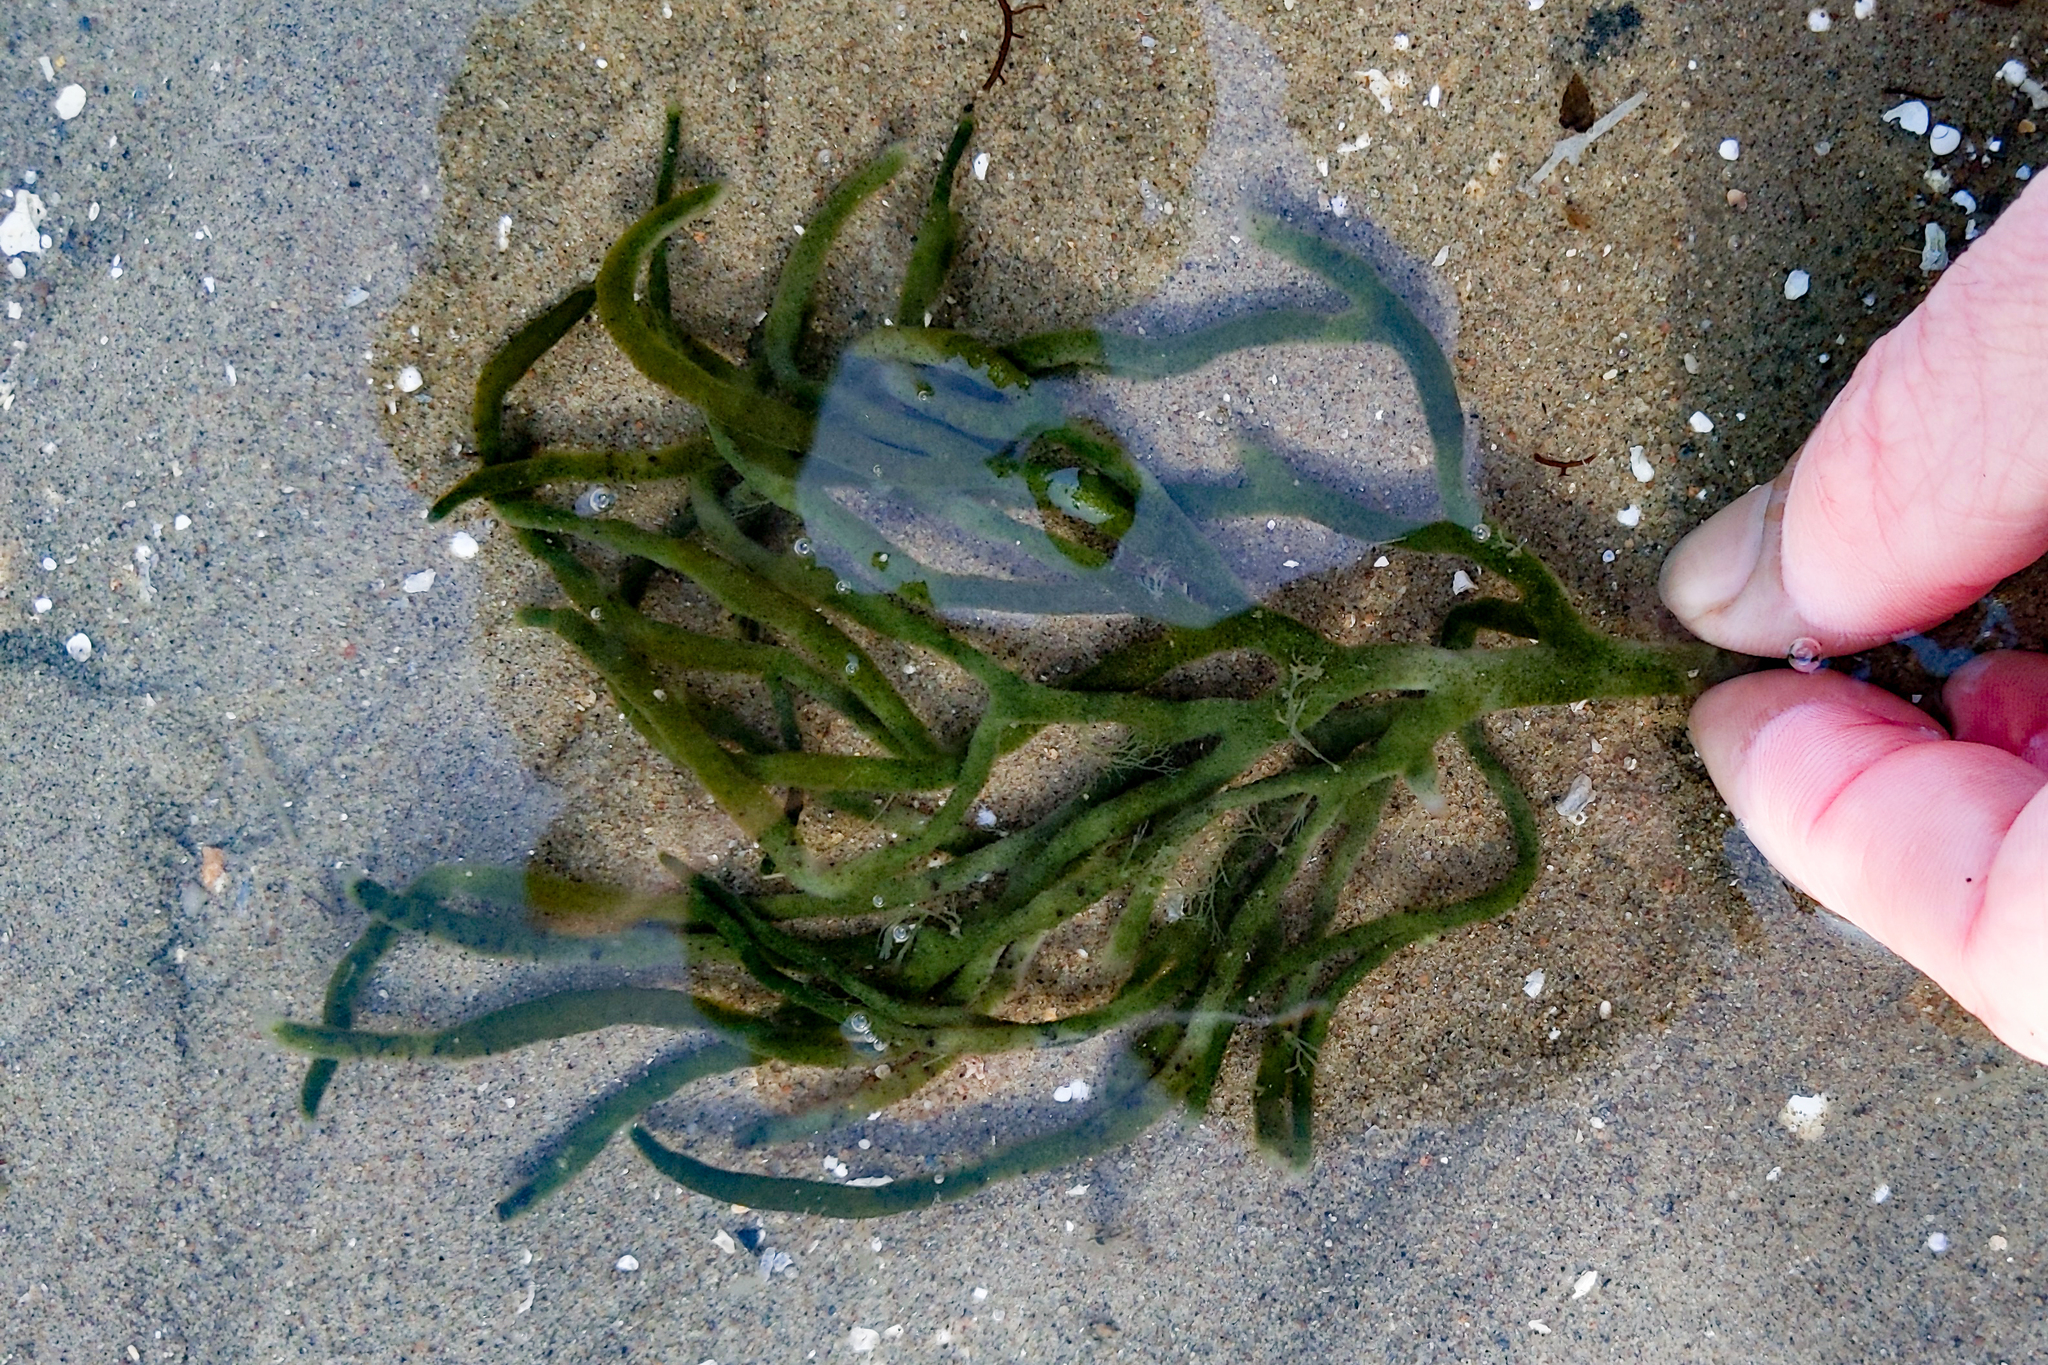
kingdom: Plantae
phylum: Chlorophyta
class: Ulvophyceae
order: Bryopsidales
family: Codiaceae
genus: Codium
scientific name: Codium fragile
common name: Dead man's fingers
